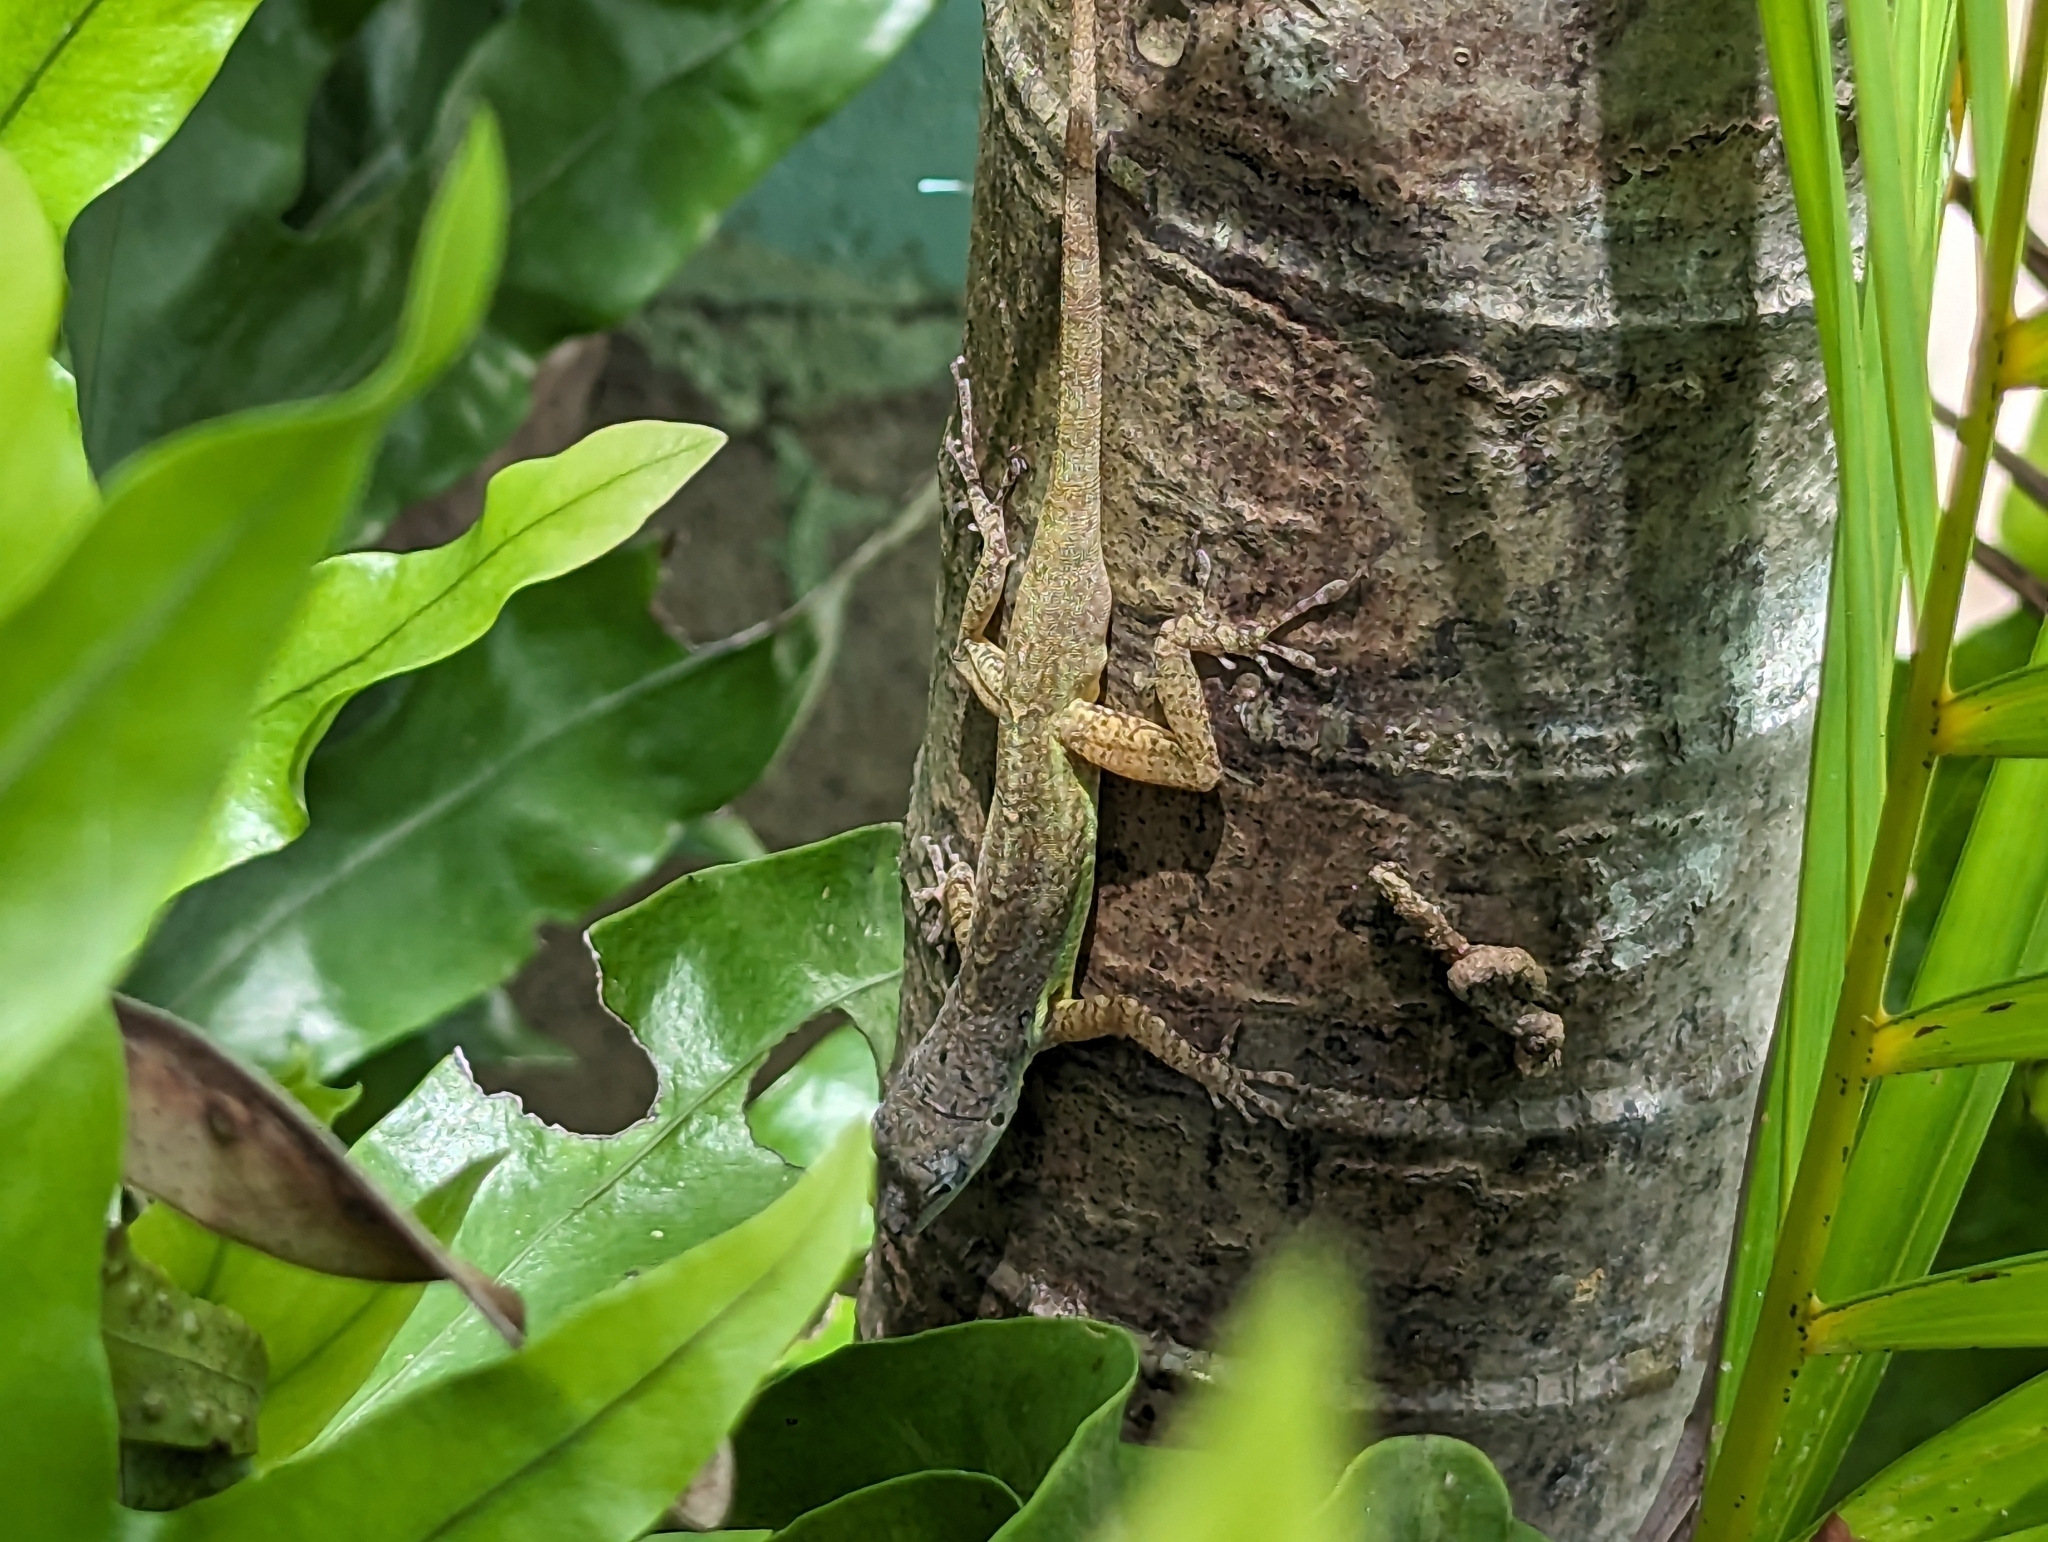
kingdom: Animalia
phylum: Chordata
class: Squamata
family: Dactyloidae
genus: Anolis
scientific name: Anolis extremus
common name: Barbados anole
